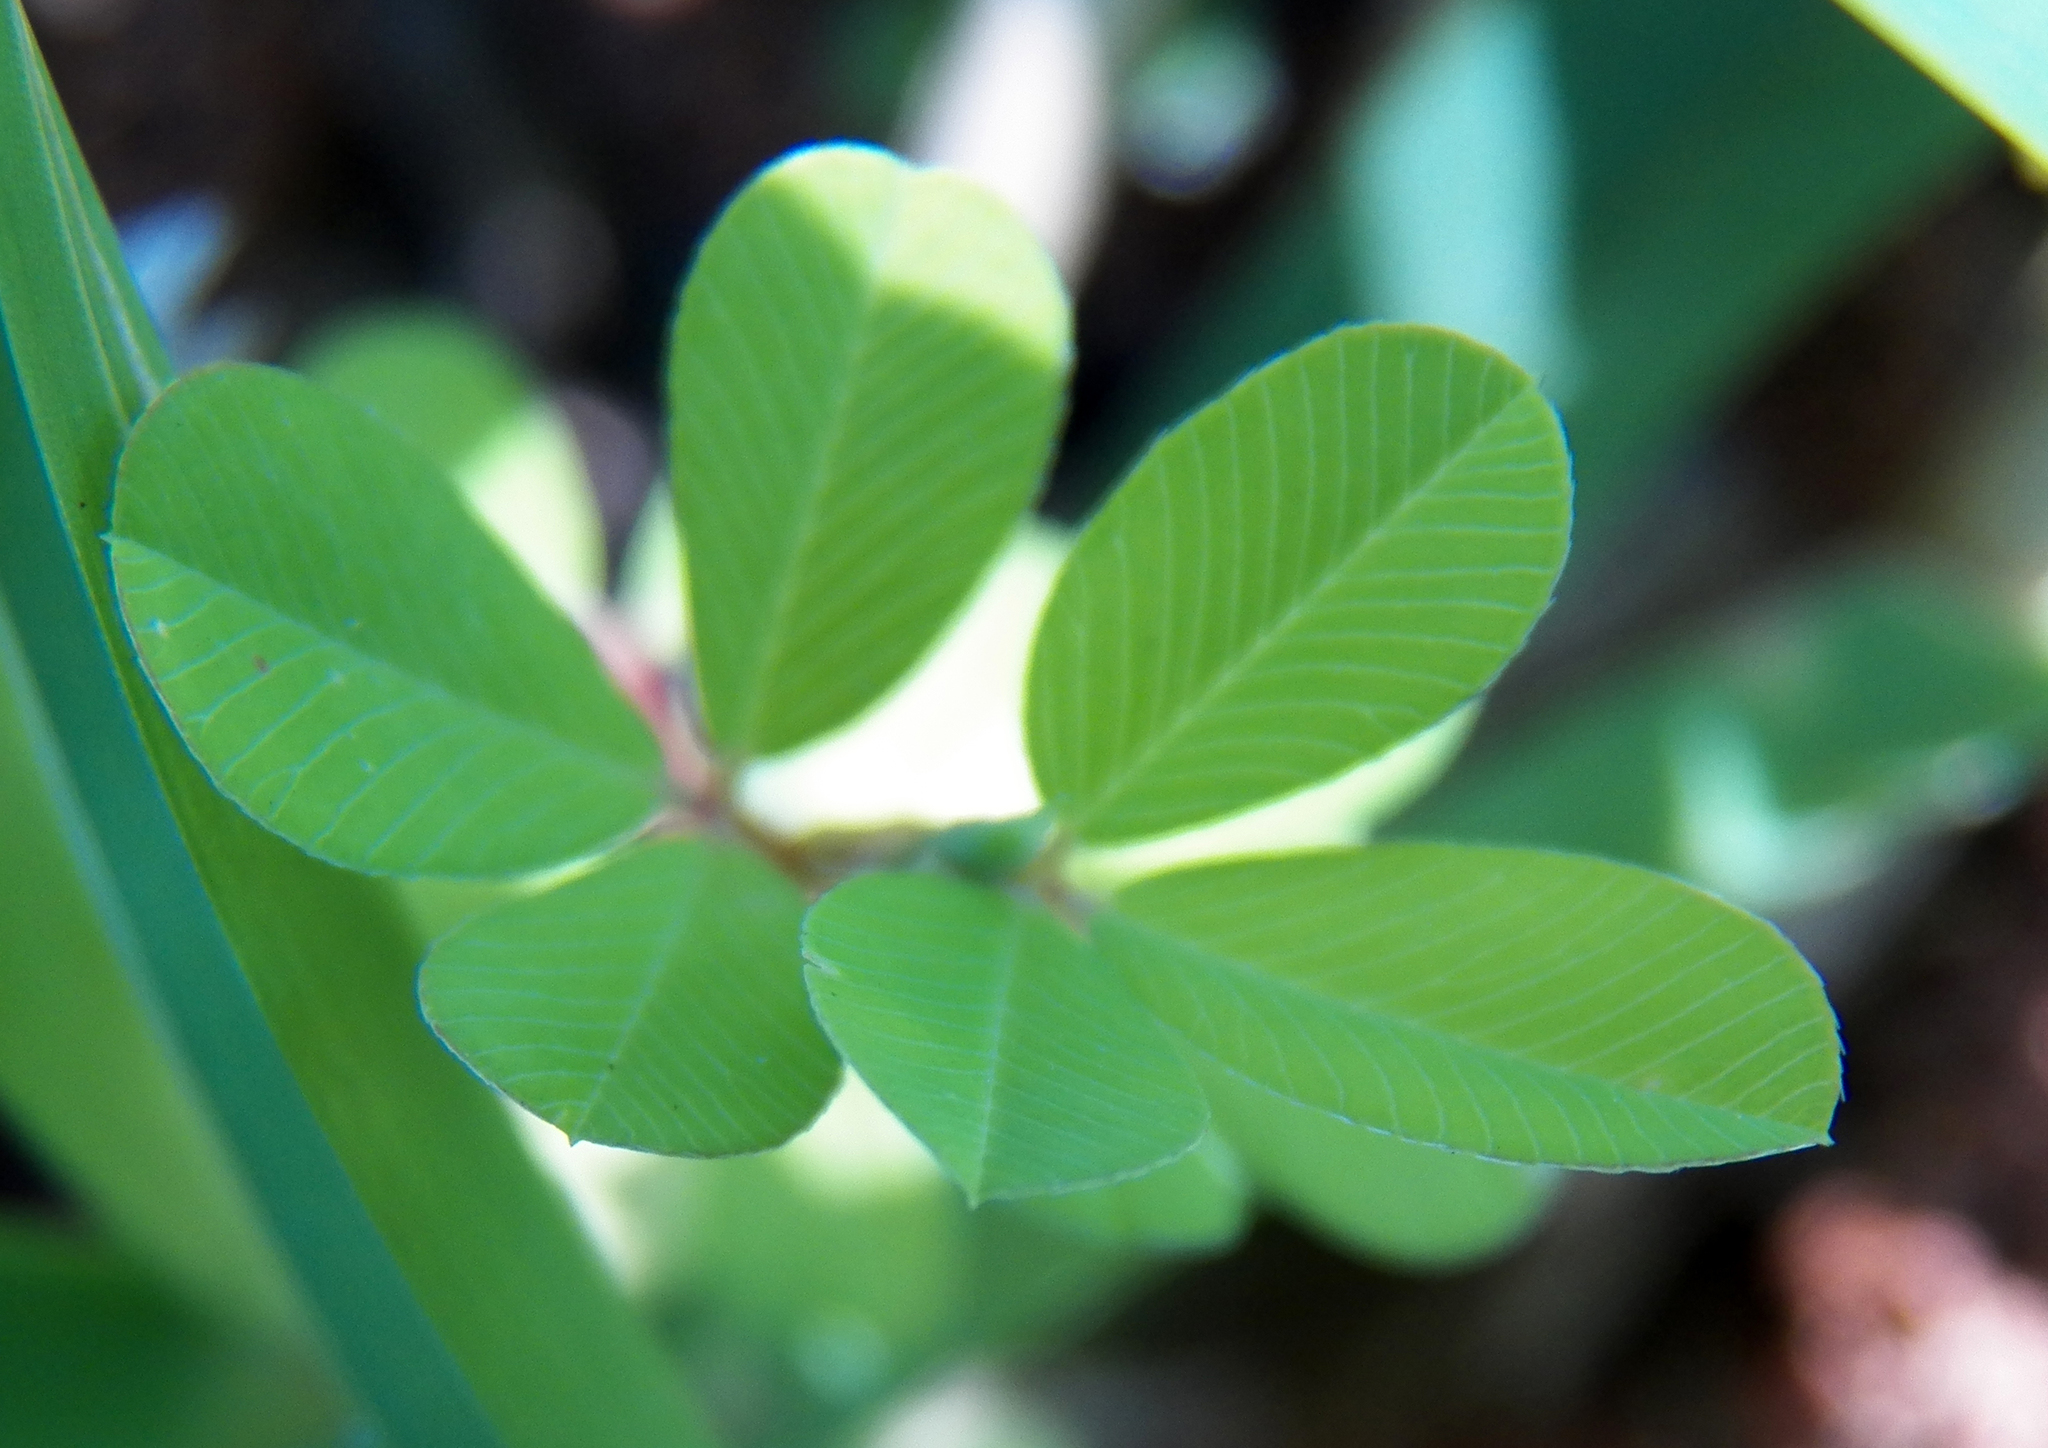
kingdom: Plantae
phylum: Tracheophyta
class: Magnoliopsida
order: Fabales
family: Fabaceae
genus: Kummerowia
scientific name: Kummerowia striata
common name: Japanese clover
